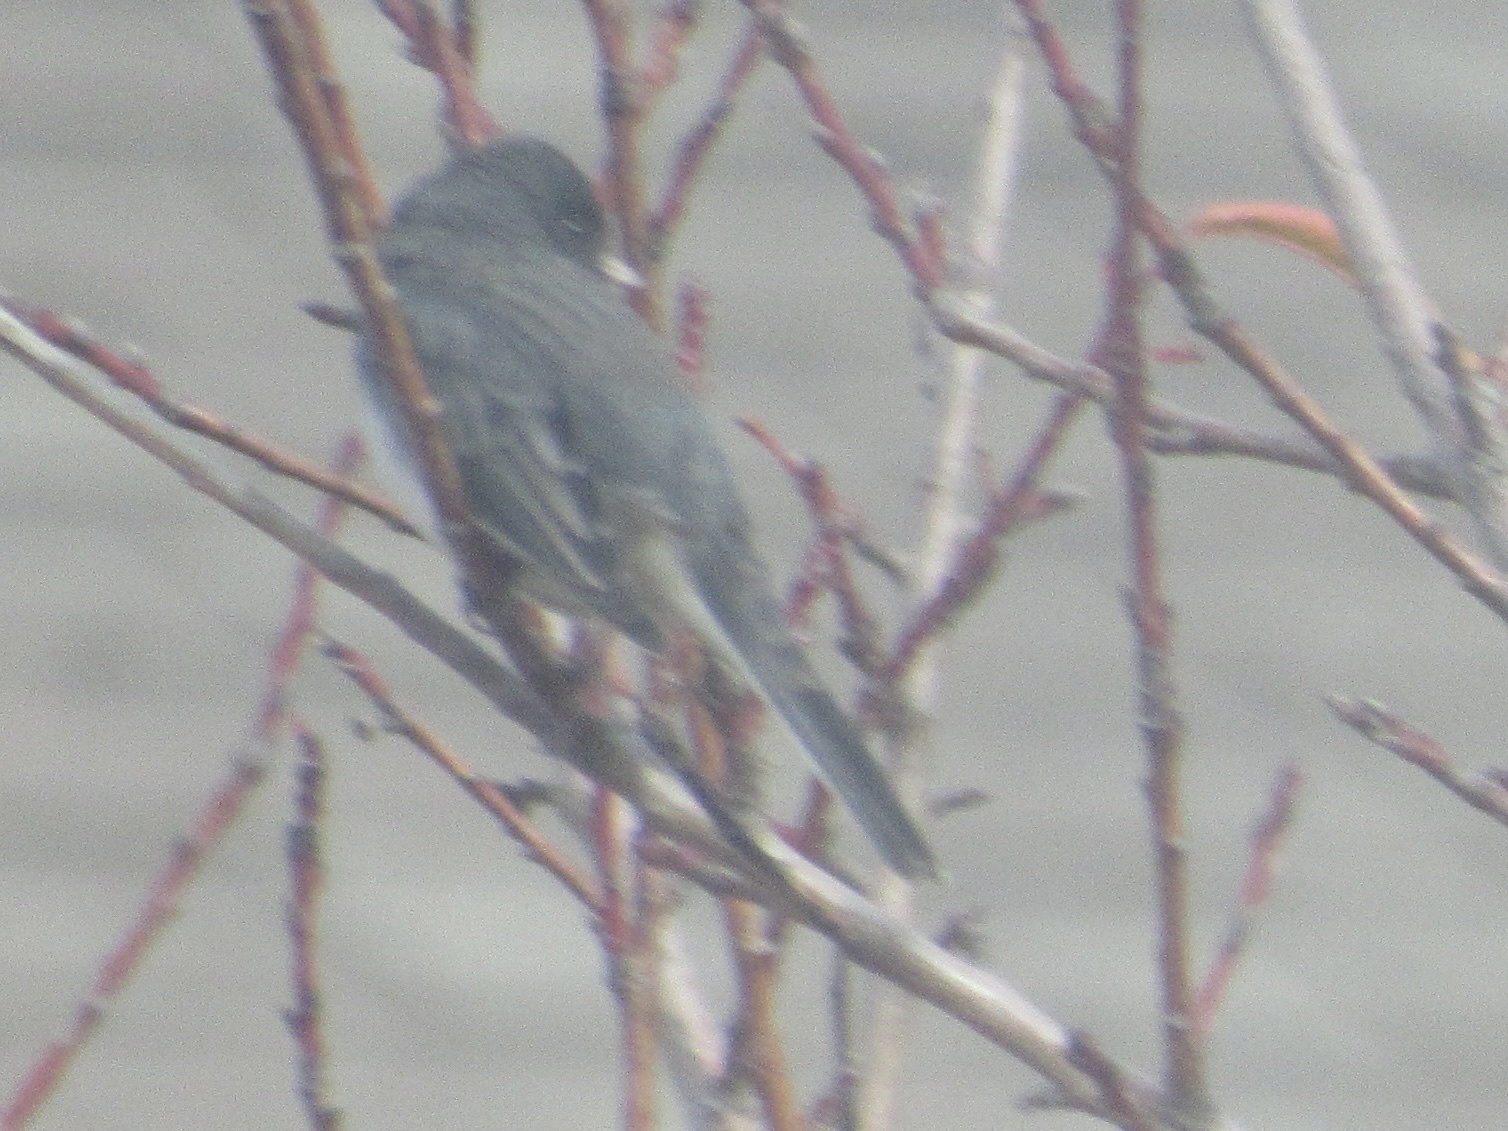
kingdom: Animalia
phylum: Chordata
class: Aves
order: Passeriformes
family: Passerellidae
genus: Junco
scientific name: Junco hyemalis
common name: Dark-eyed junco
